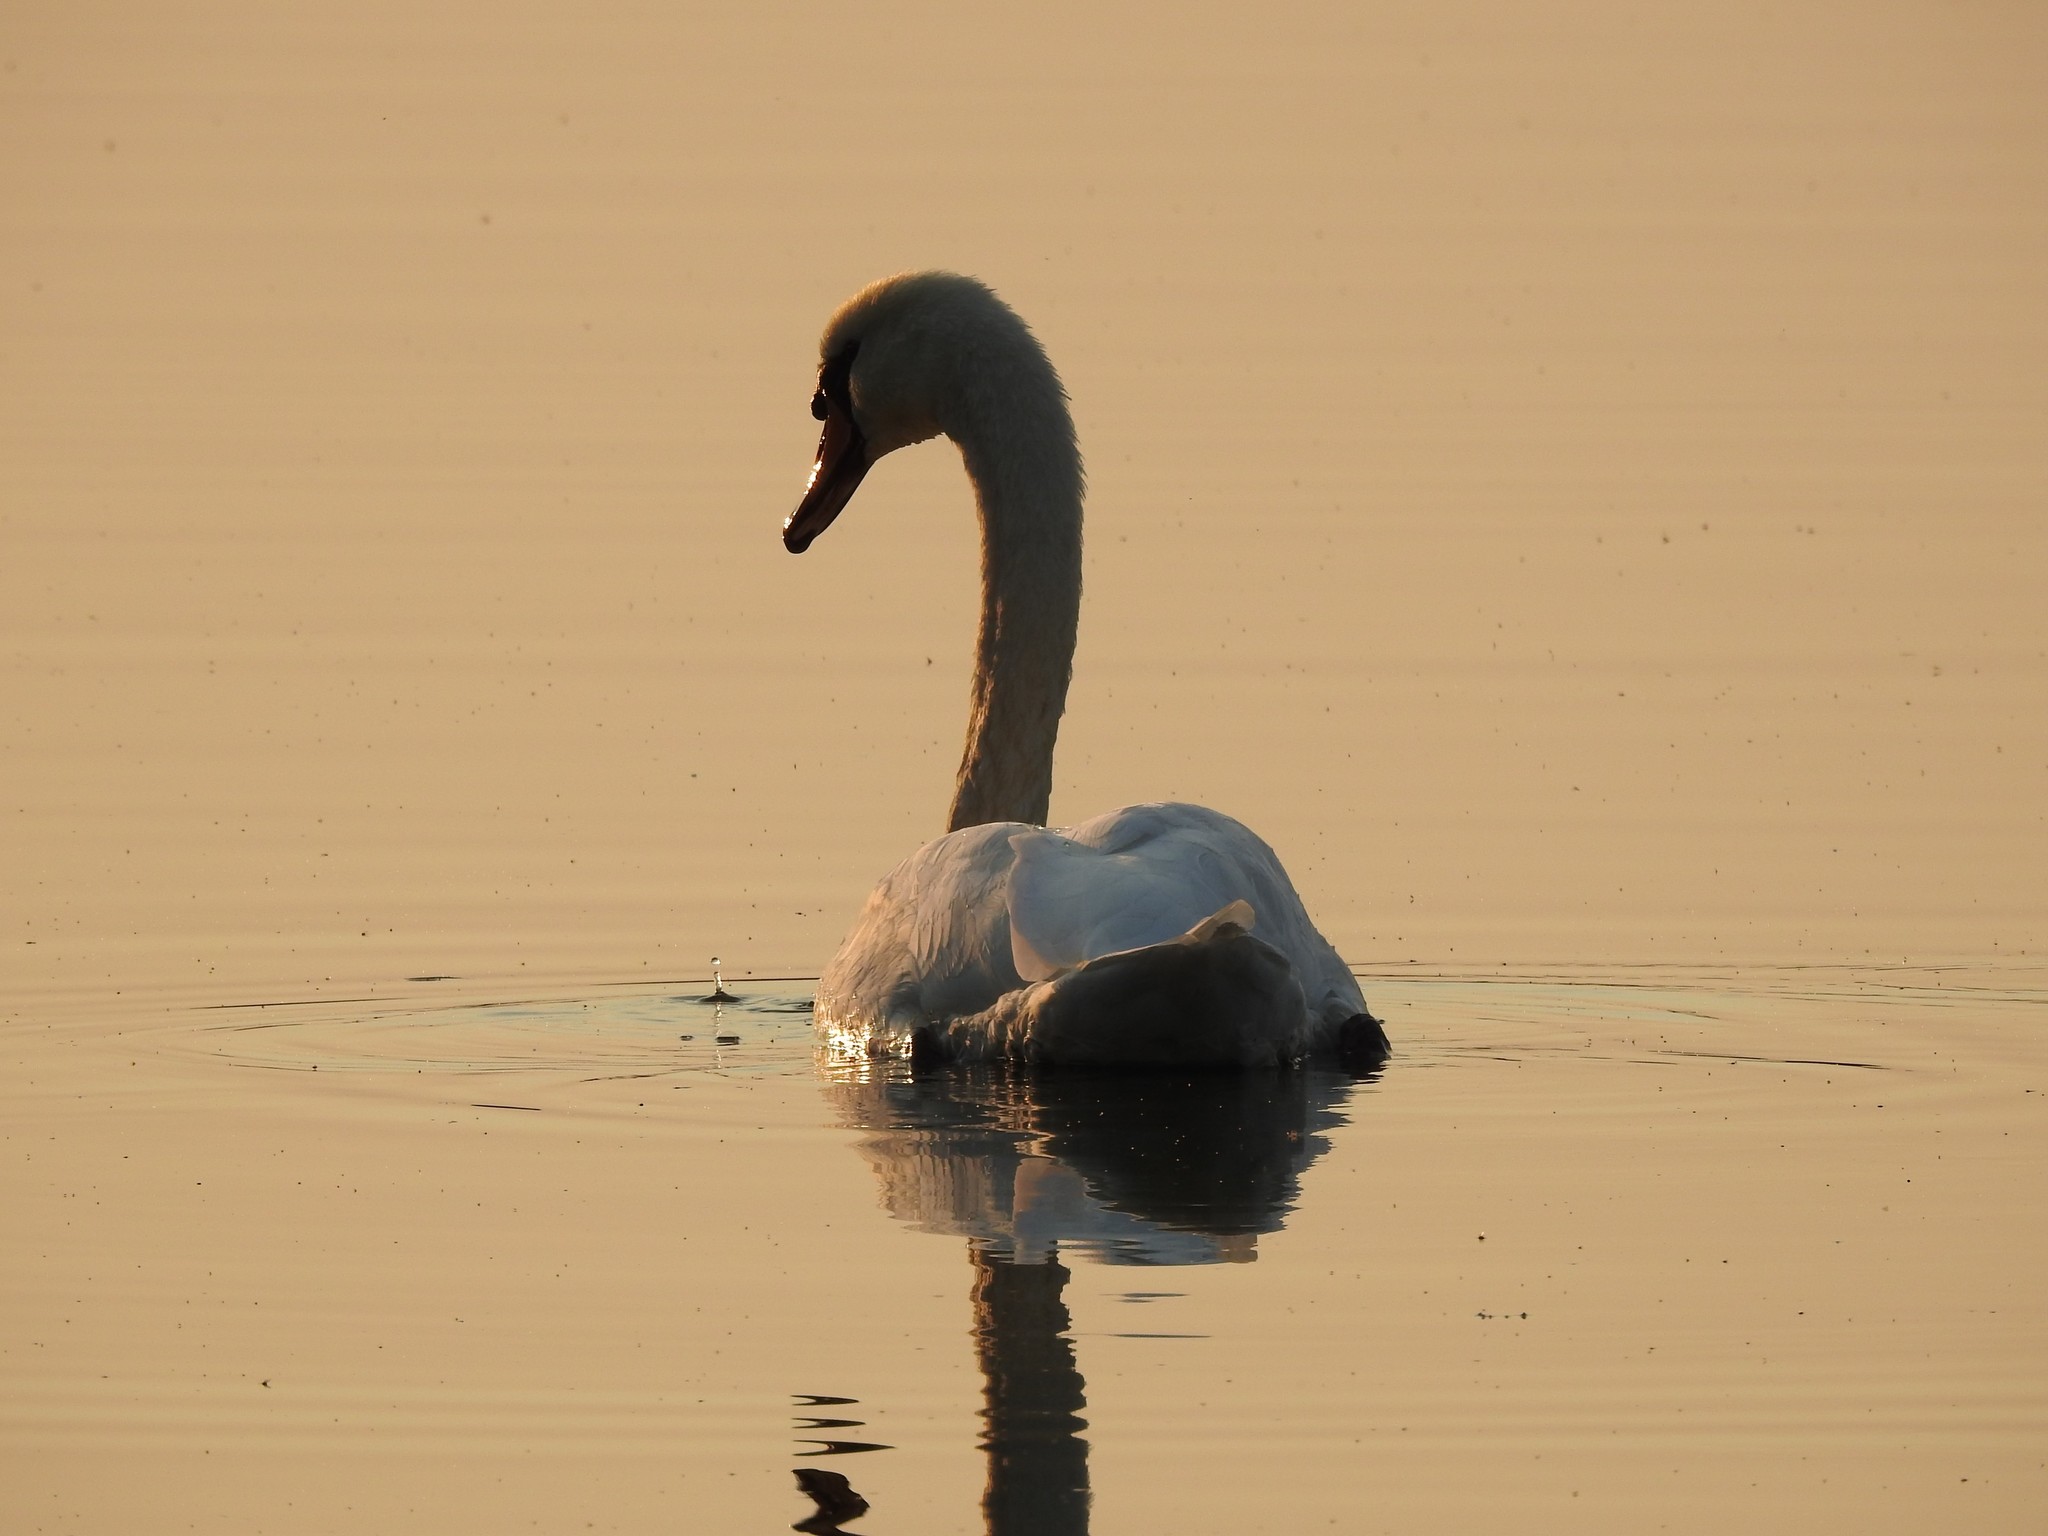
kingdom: Animalia
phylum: Chordata
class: Aves
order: Anseriformes
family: Anatidae
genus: Cygnus
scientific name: Cygnus olor
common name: Mute swan
